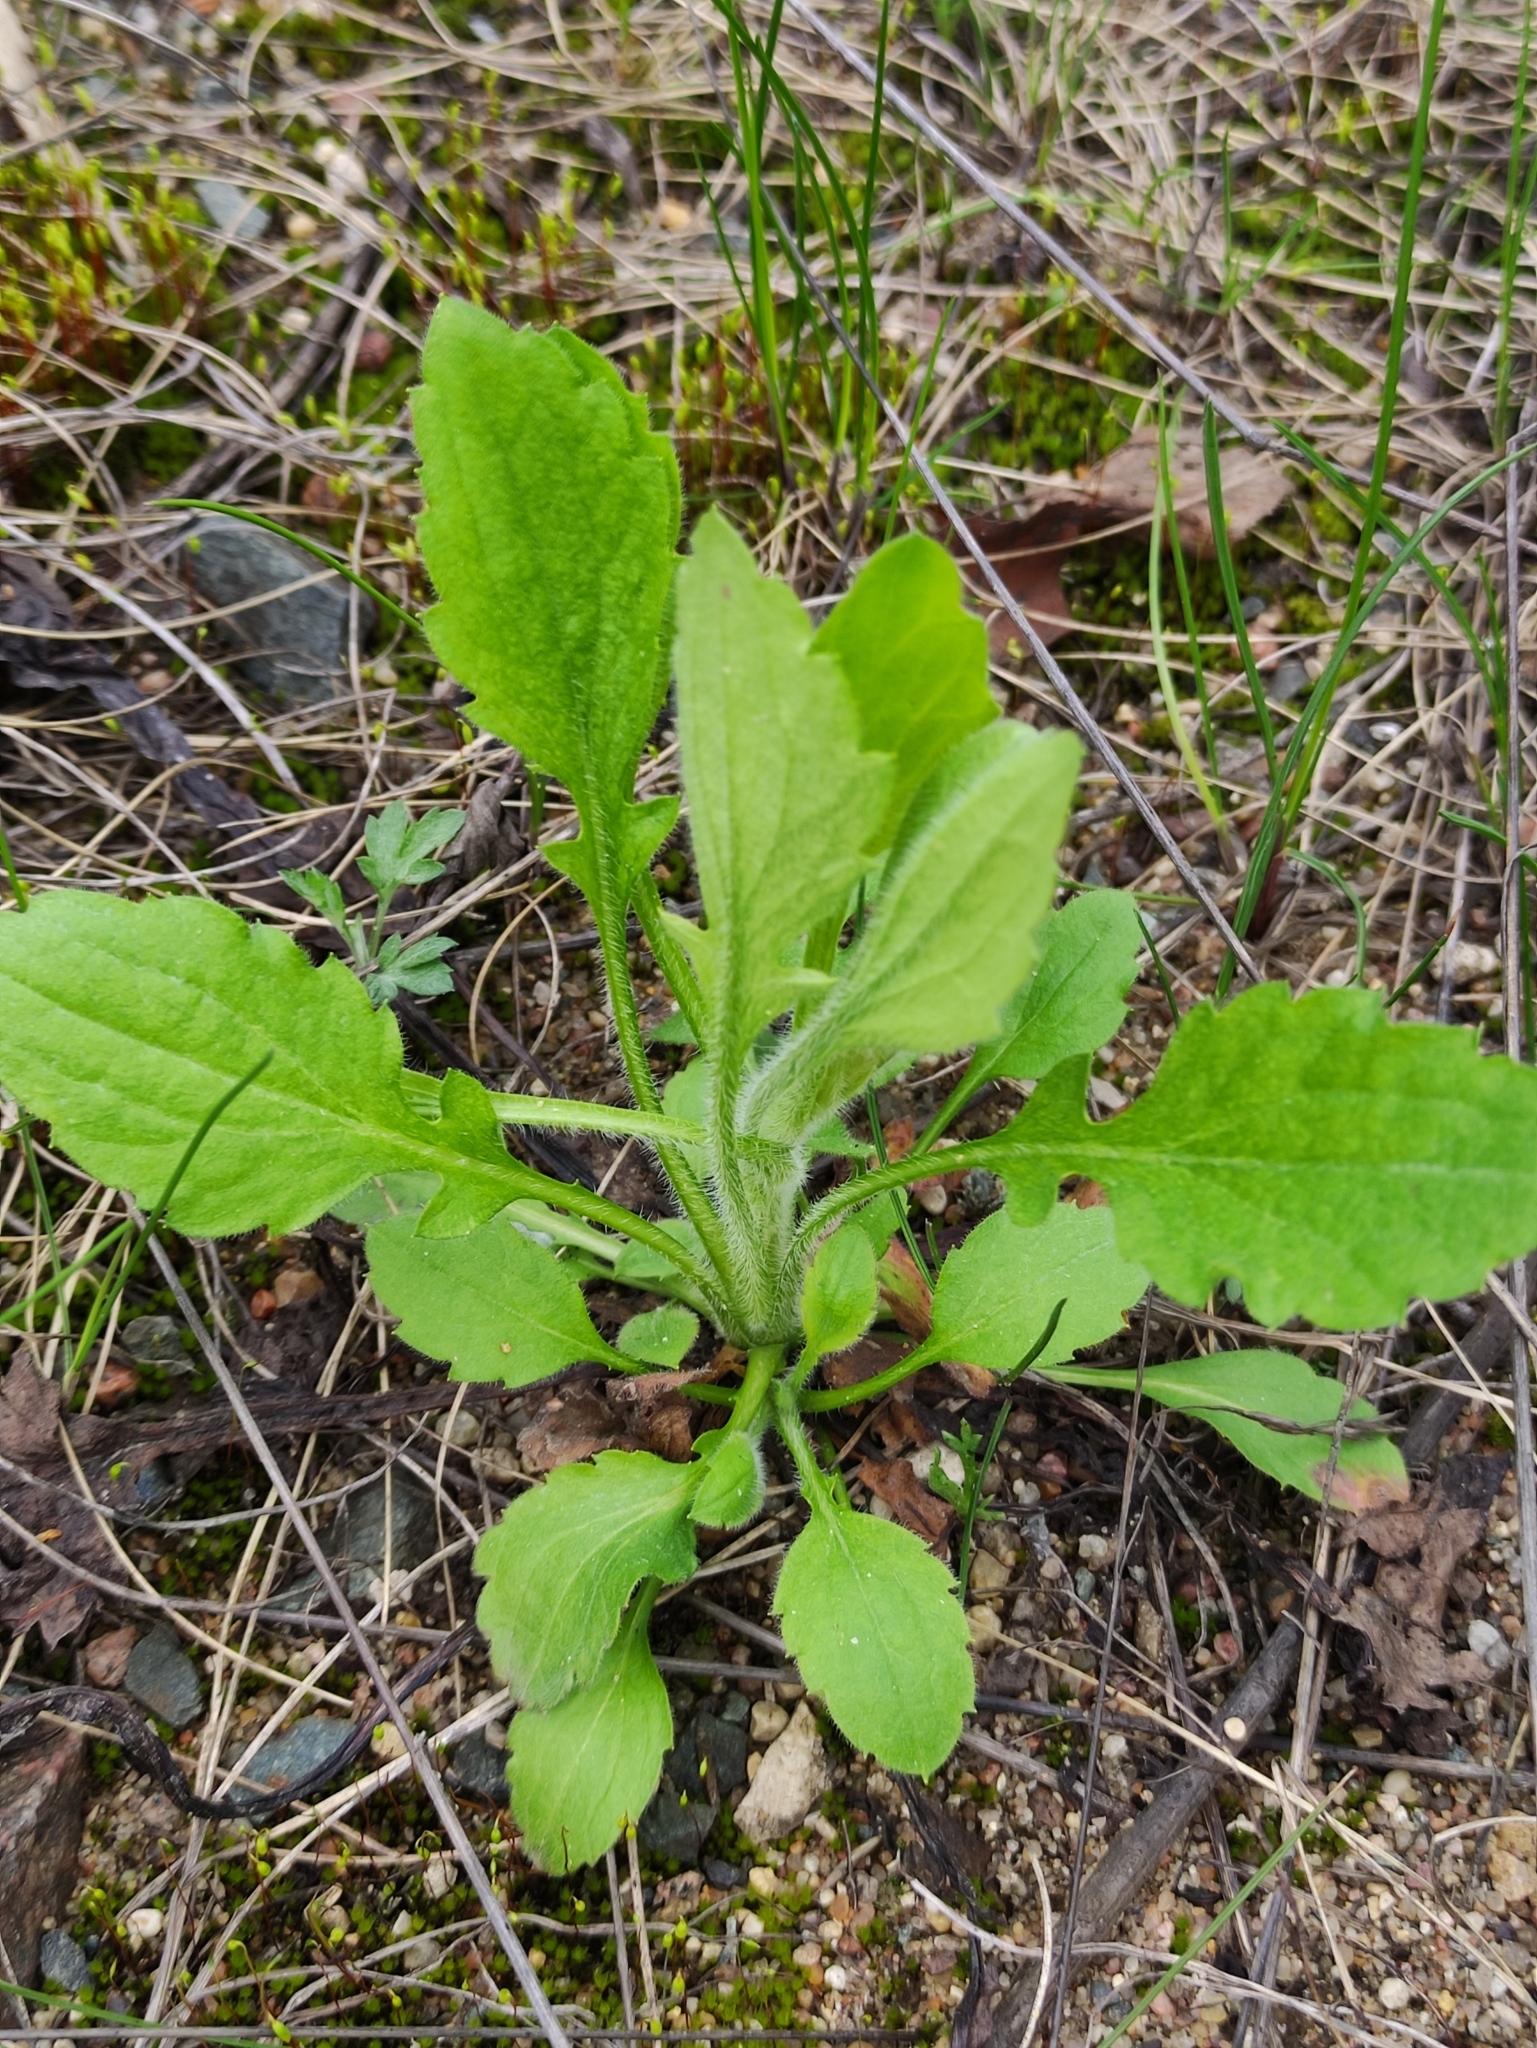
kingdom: Plantae
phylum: Tracheophyta
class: Magnoliopsida
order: Asterales
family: Asteraceae
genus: Erigeron
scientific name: Erigeron annuus
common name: Tall fleabane
